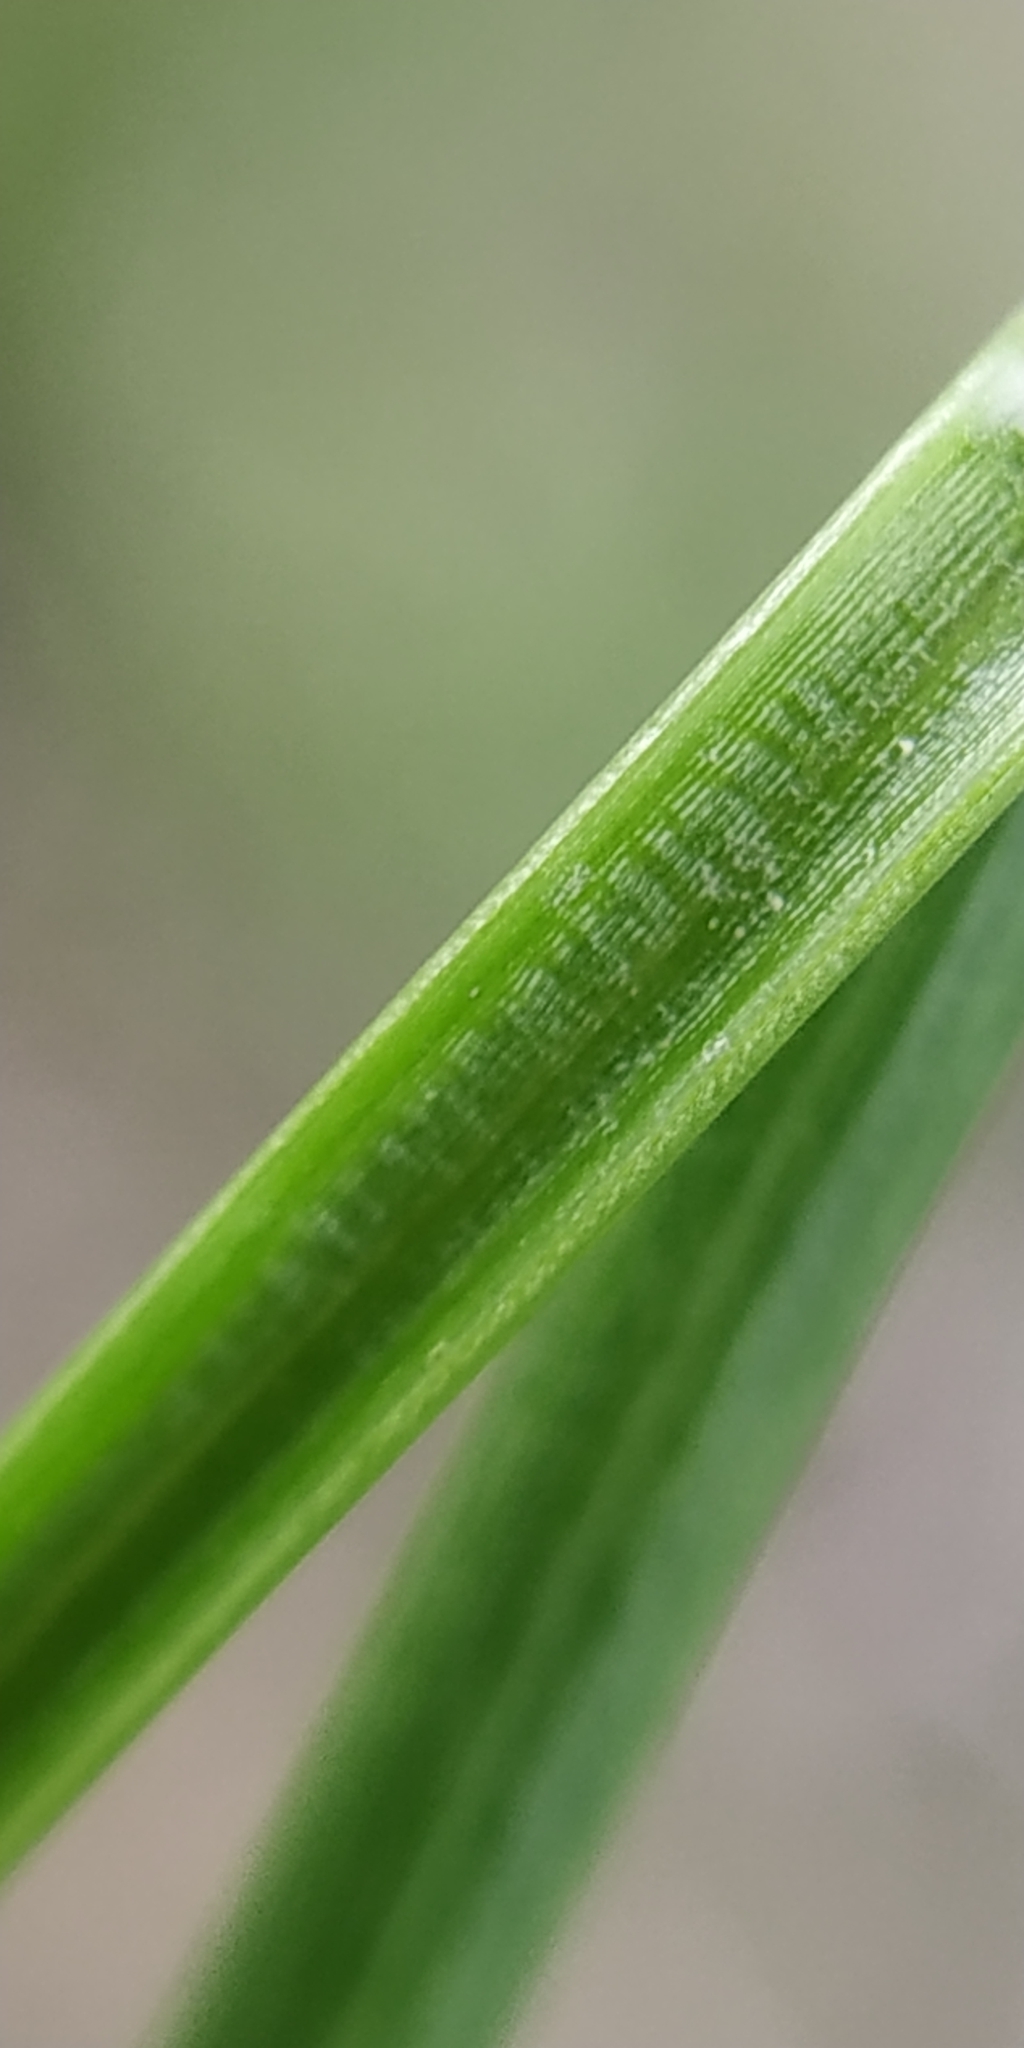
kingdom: Plantae
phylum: Tracheophyta
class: Liliopsida
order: Poales
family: Juncaceae
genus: Juncus
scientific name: Juncus tenuis
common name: Slender rush
